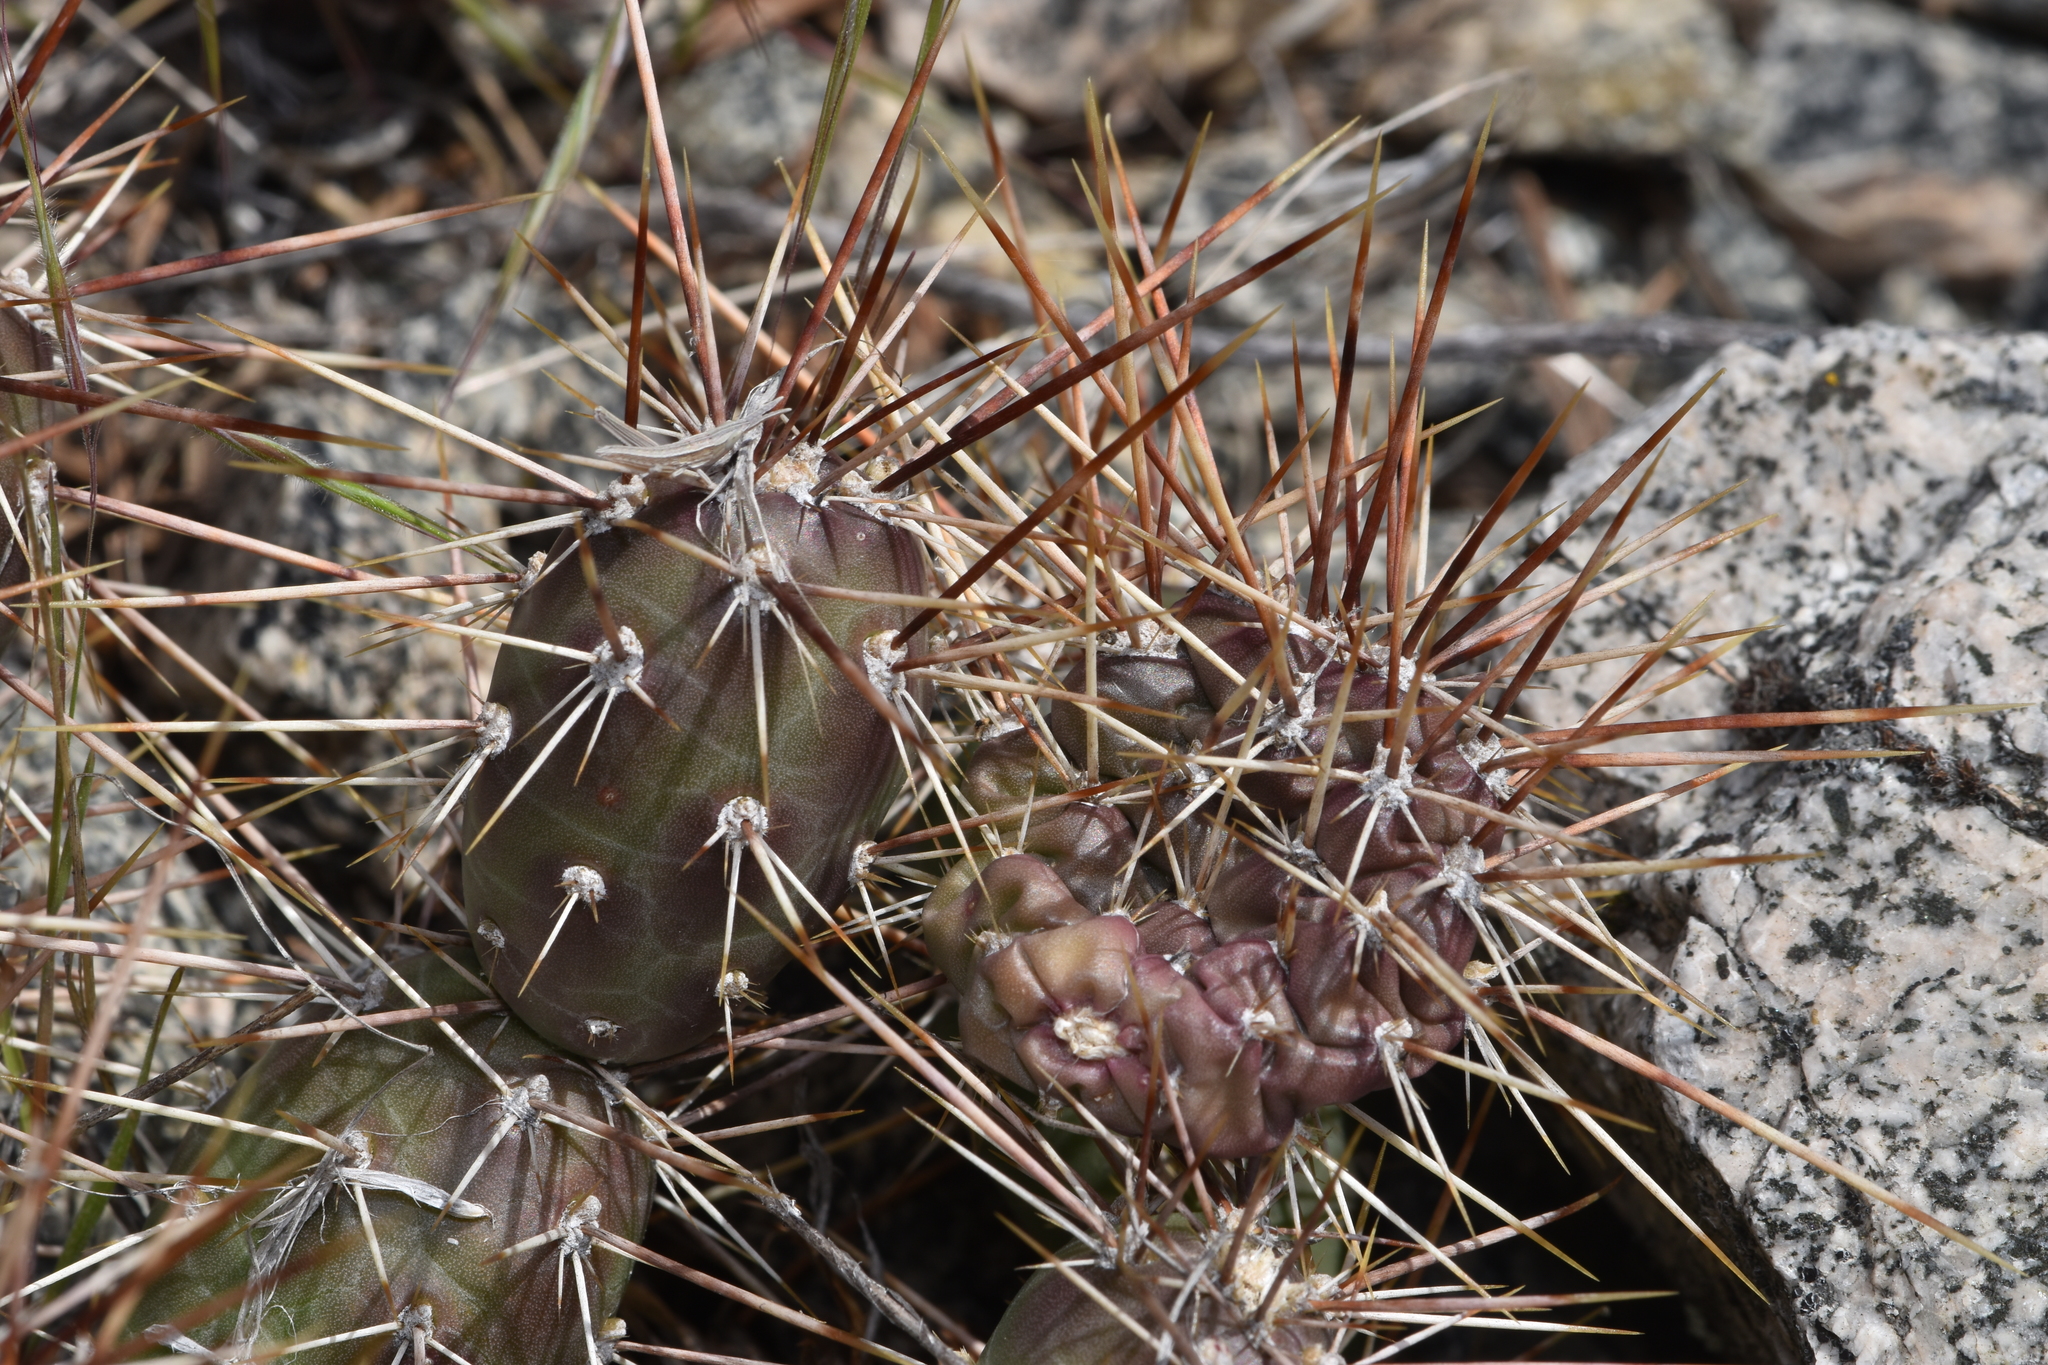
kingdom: Plantae
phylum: Tracheophyta
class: Magnoliopsida
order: Caryophyllales
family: Cactaceae
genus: Opuntia
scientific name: Opuntia fragilis
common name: Brittle cactus
